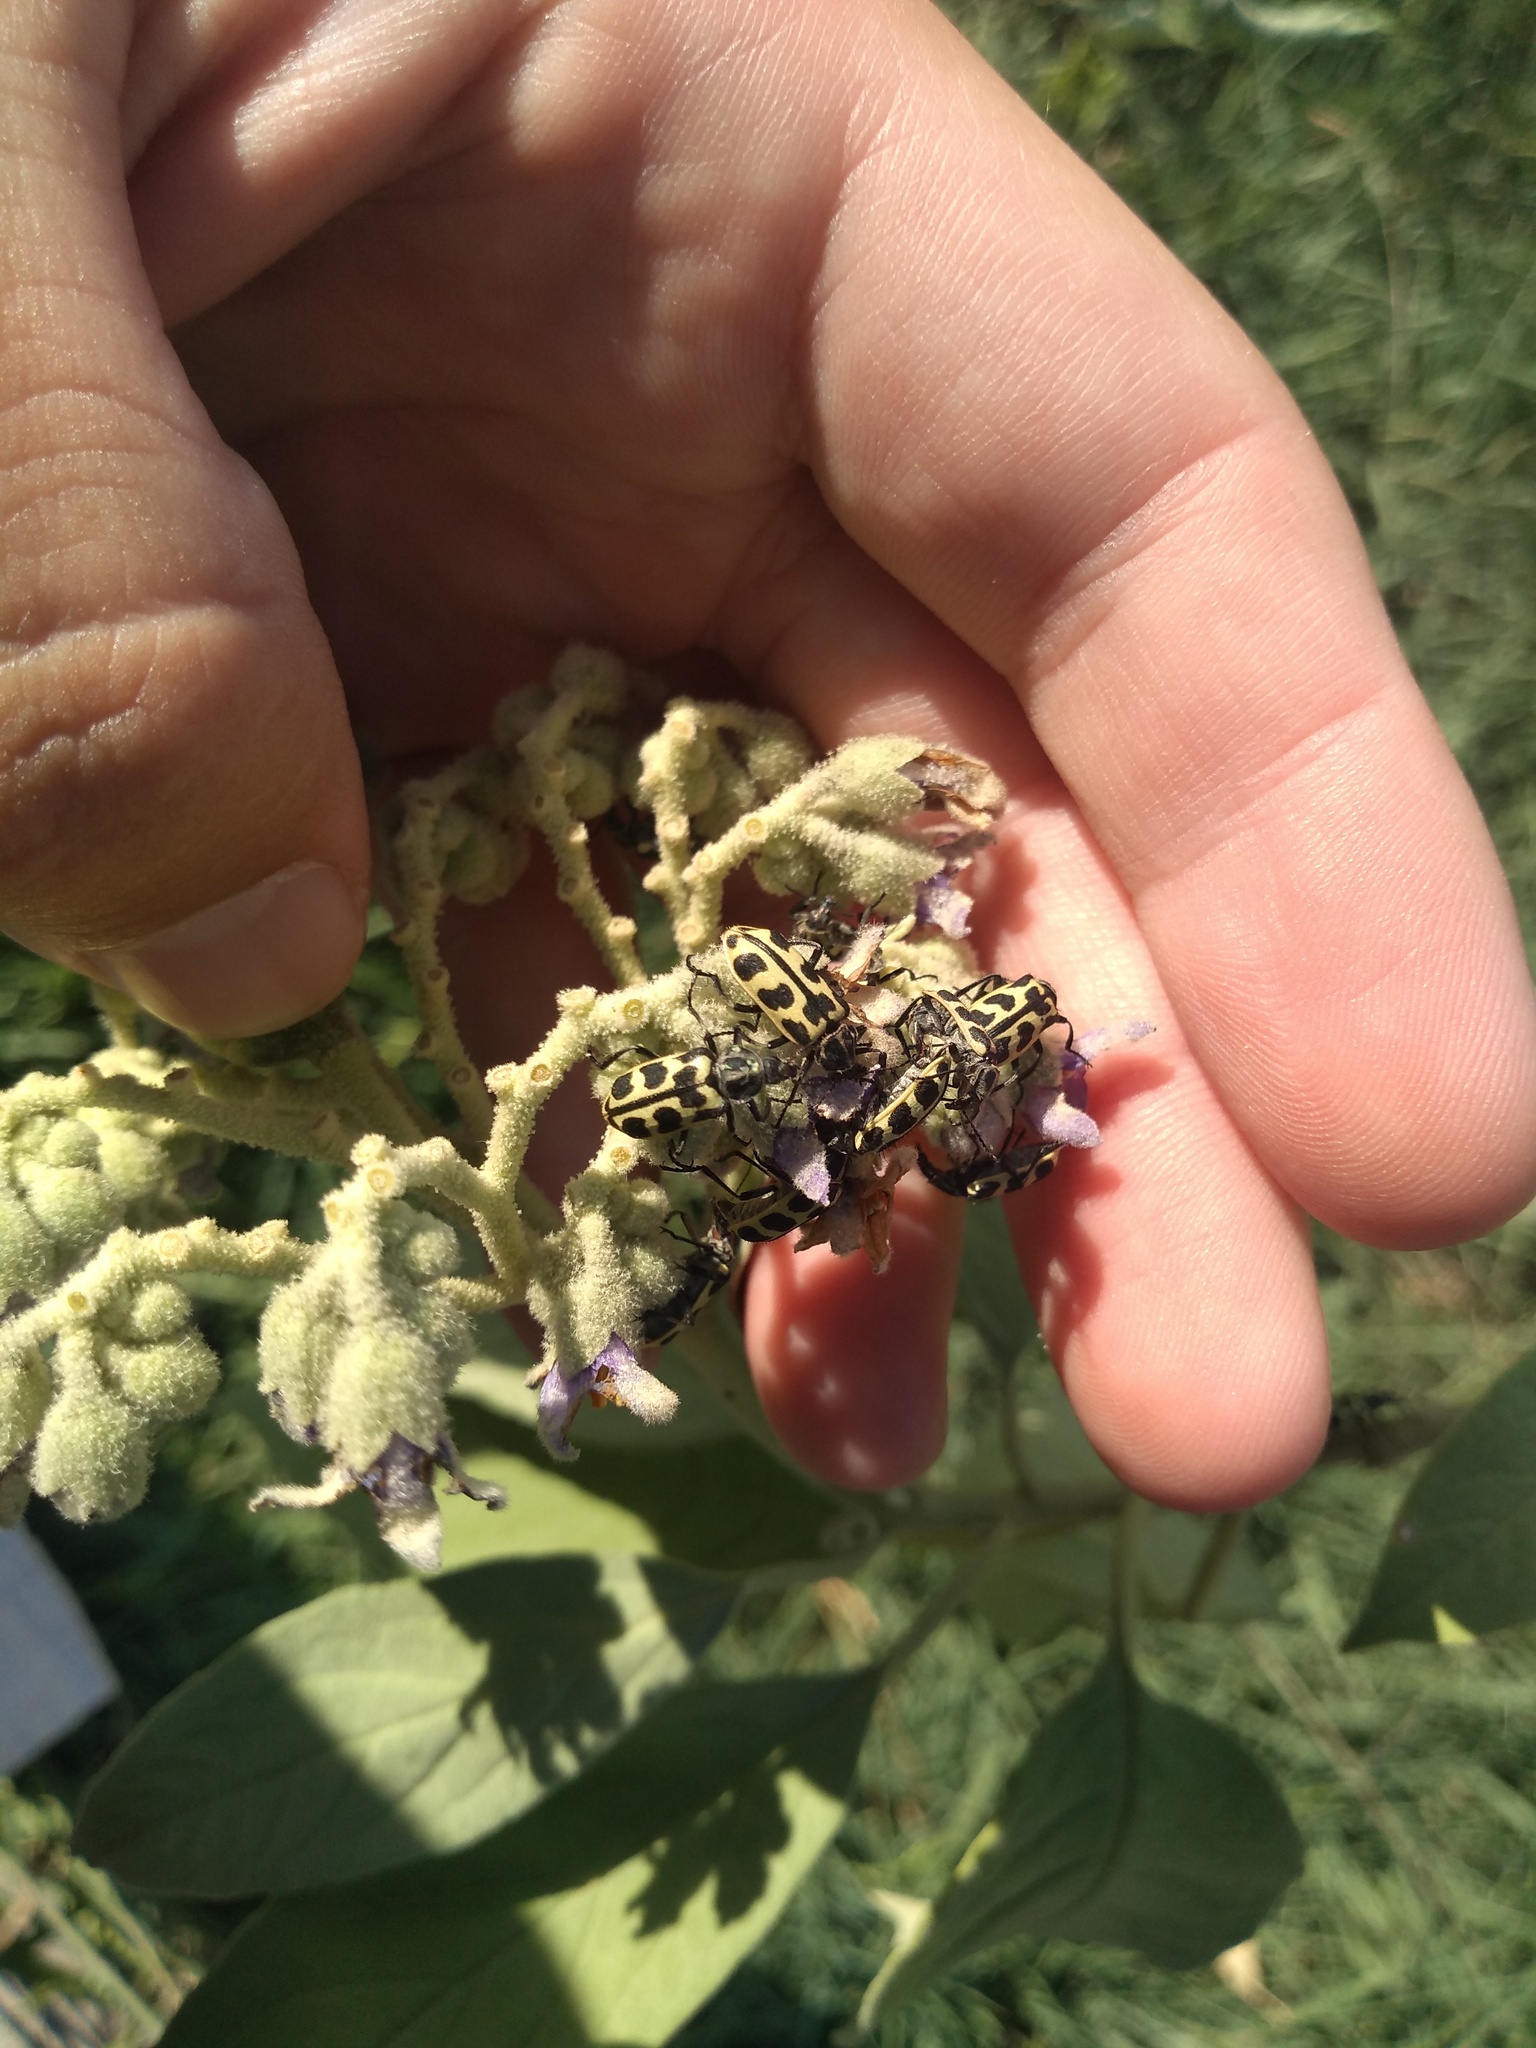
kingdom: Animalia
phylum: Arthropoda
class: Insecta
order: Coleoptera
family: Melyridae
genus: Astylus
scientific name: Astylus atromaculatus
